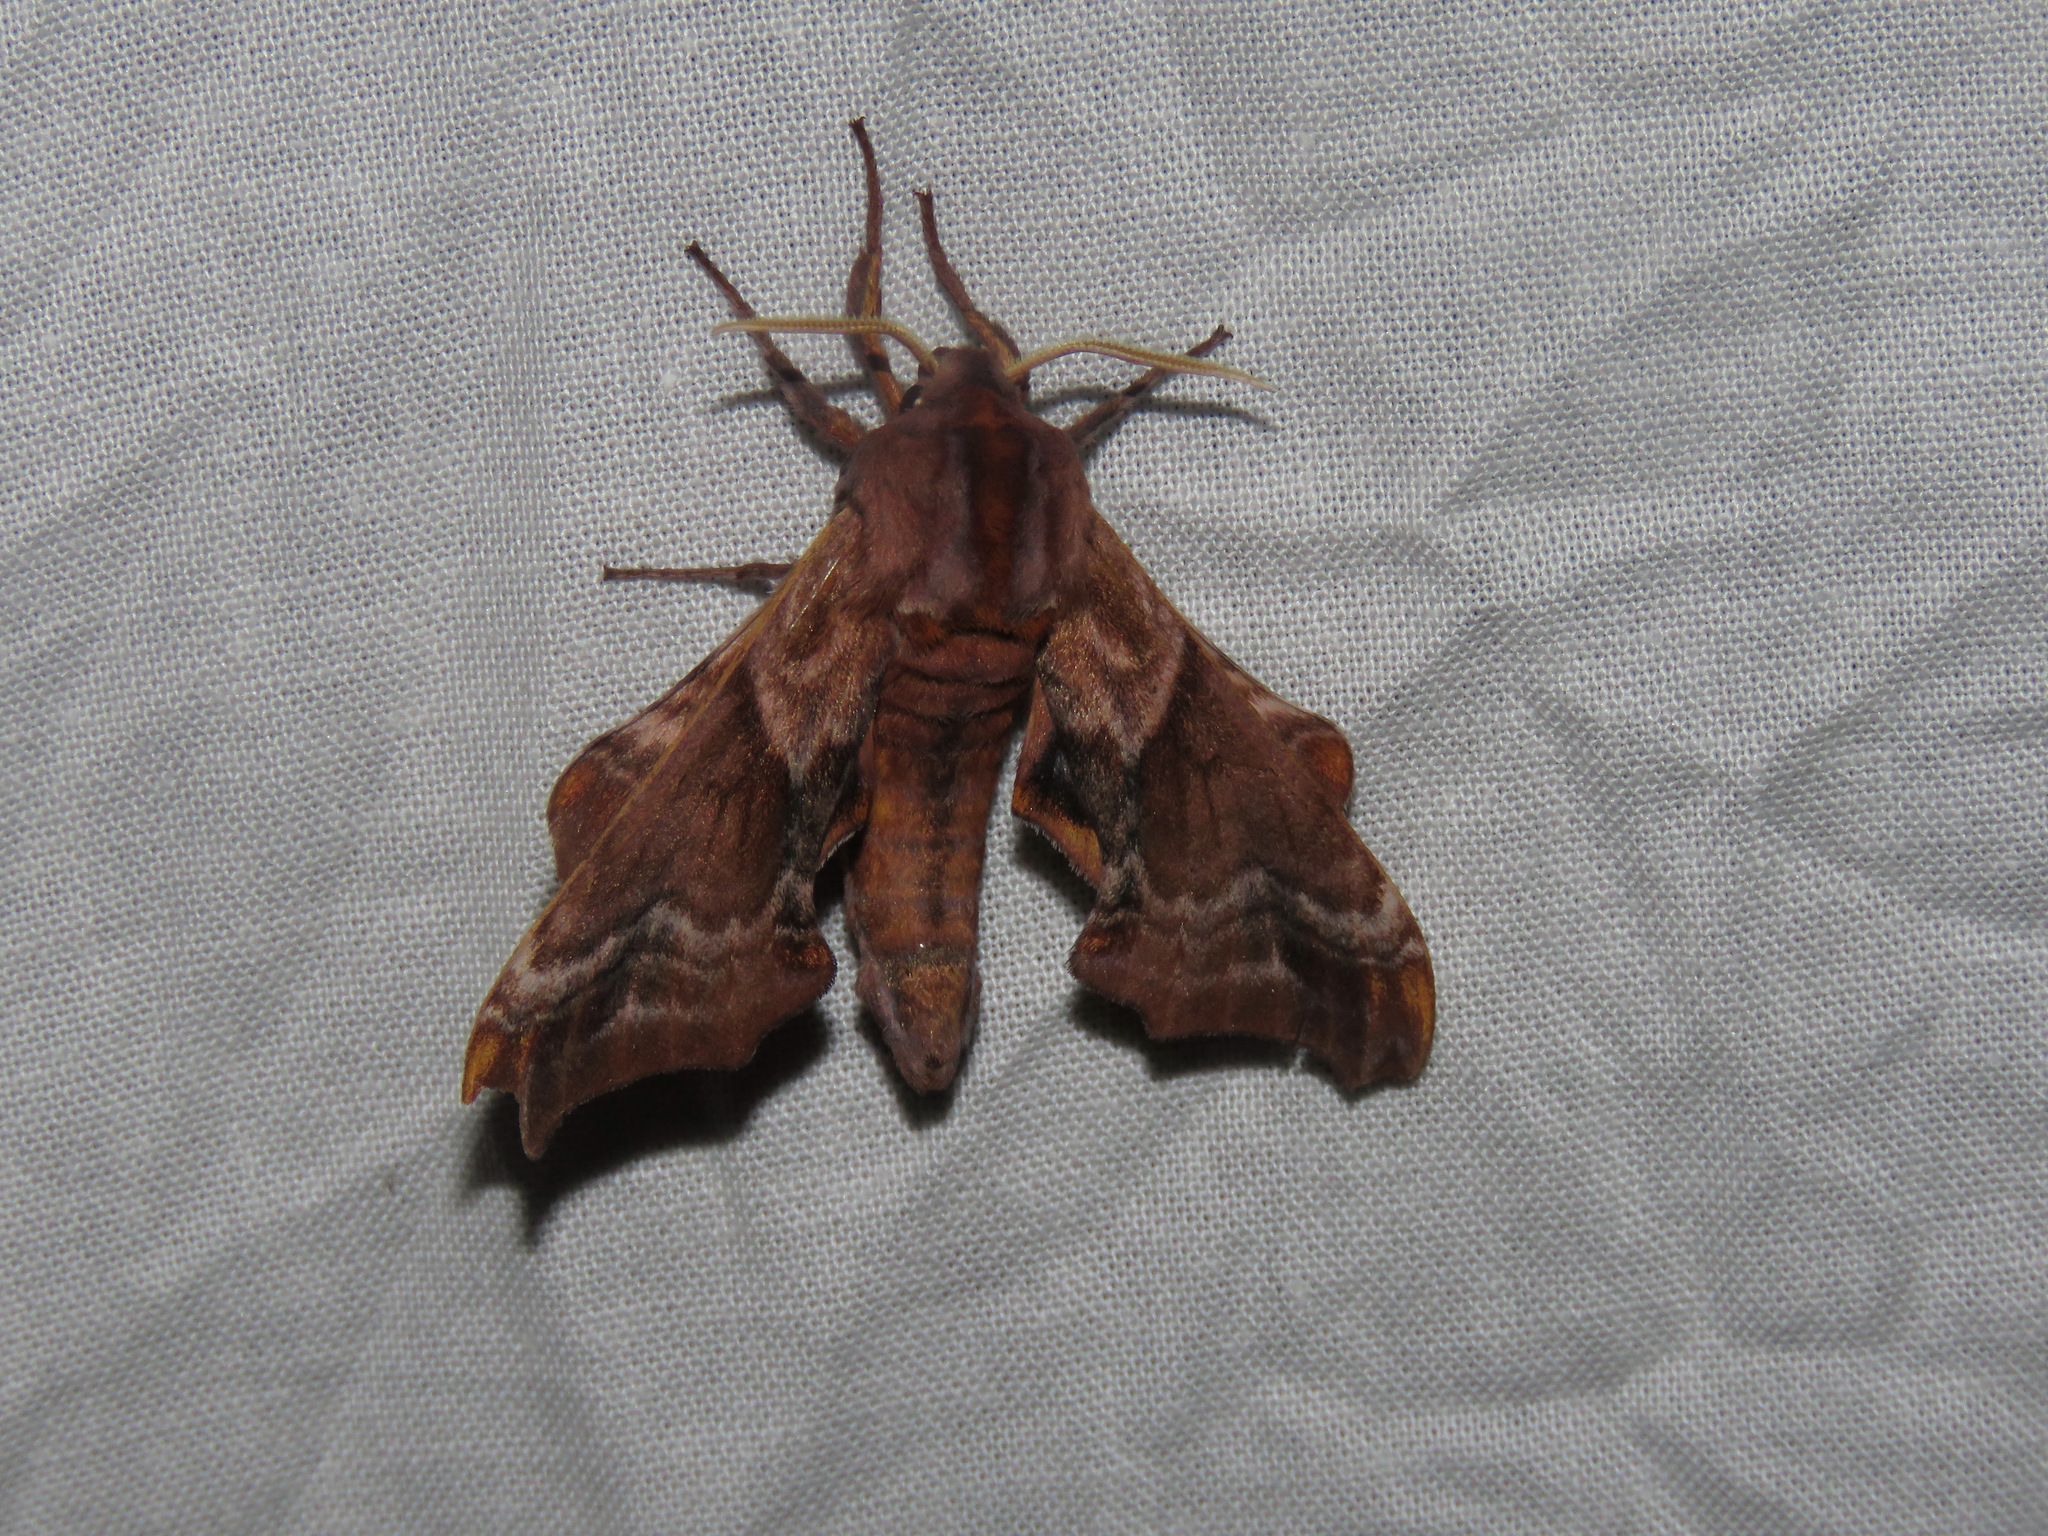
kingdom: Animalia
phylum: Arthropoda
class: Insecta
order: Lepidoptera
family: Sphingidae
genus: Paonias
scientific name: Paonias myops
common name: Small-eyed sphinx
